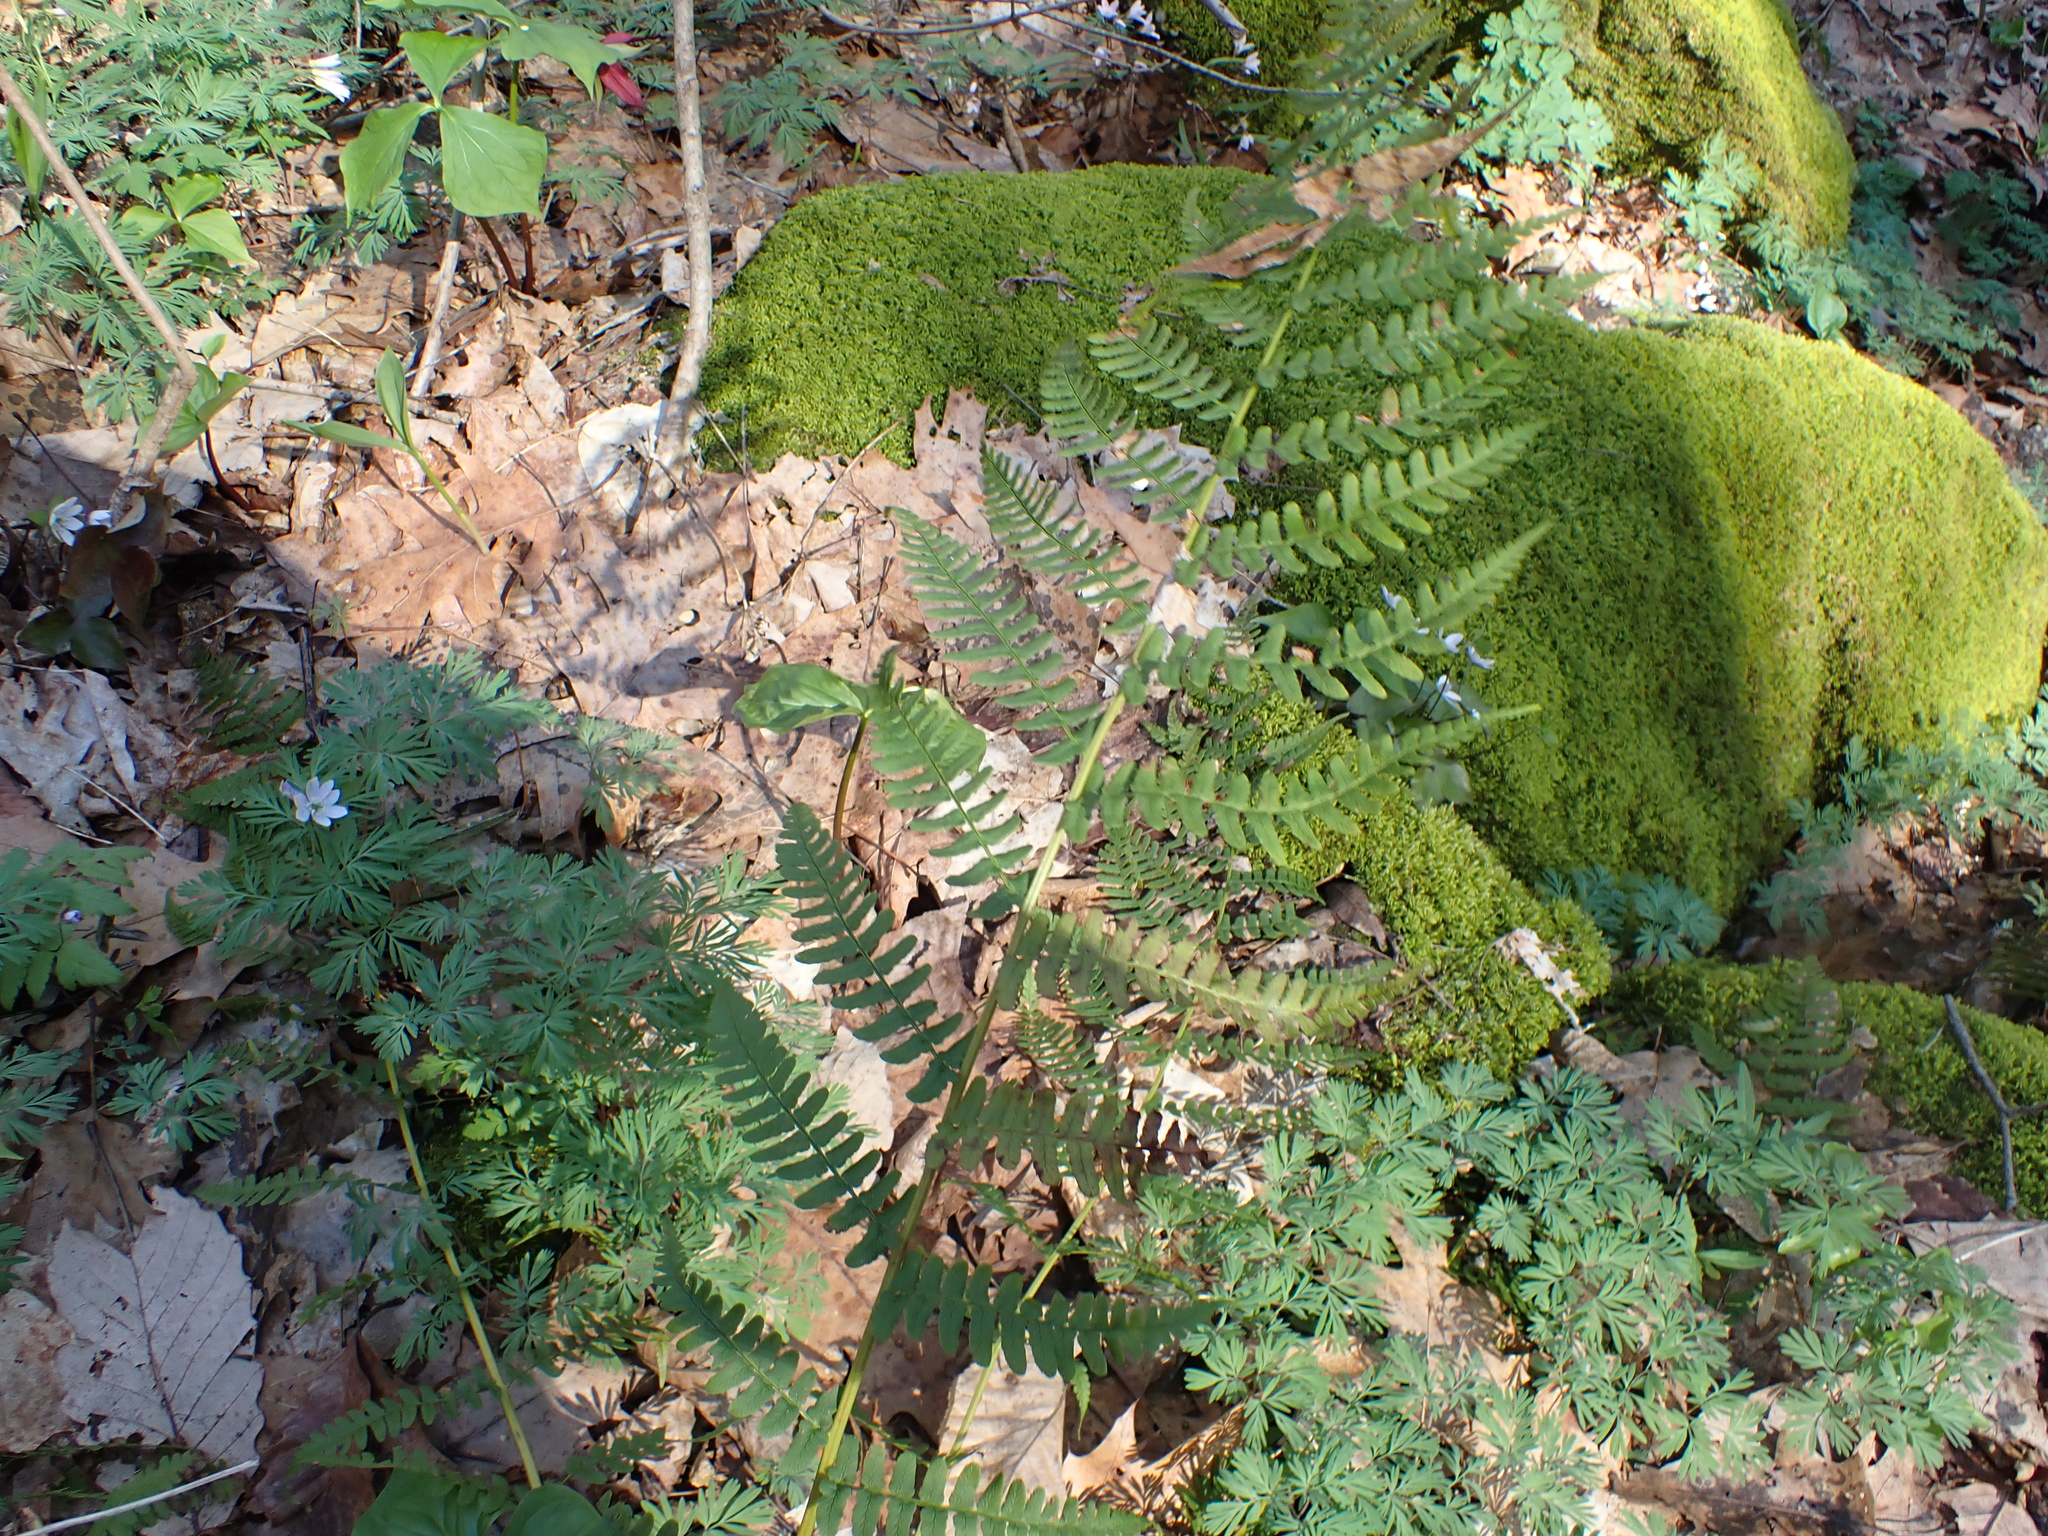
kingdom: Plantae
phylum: Tracheophyta
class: Polypodiopsida
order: Polypodiales
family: Dryopteridaceae
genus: Dryopteris
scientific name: Dryopteris marginalis
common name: Marginal wood fern
